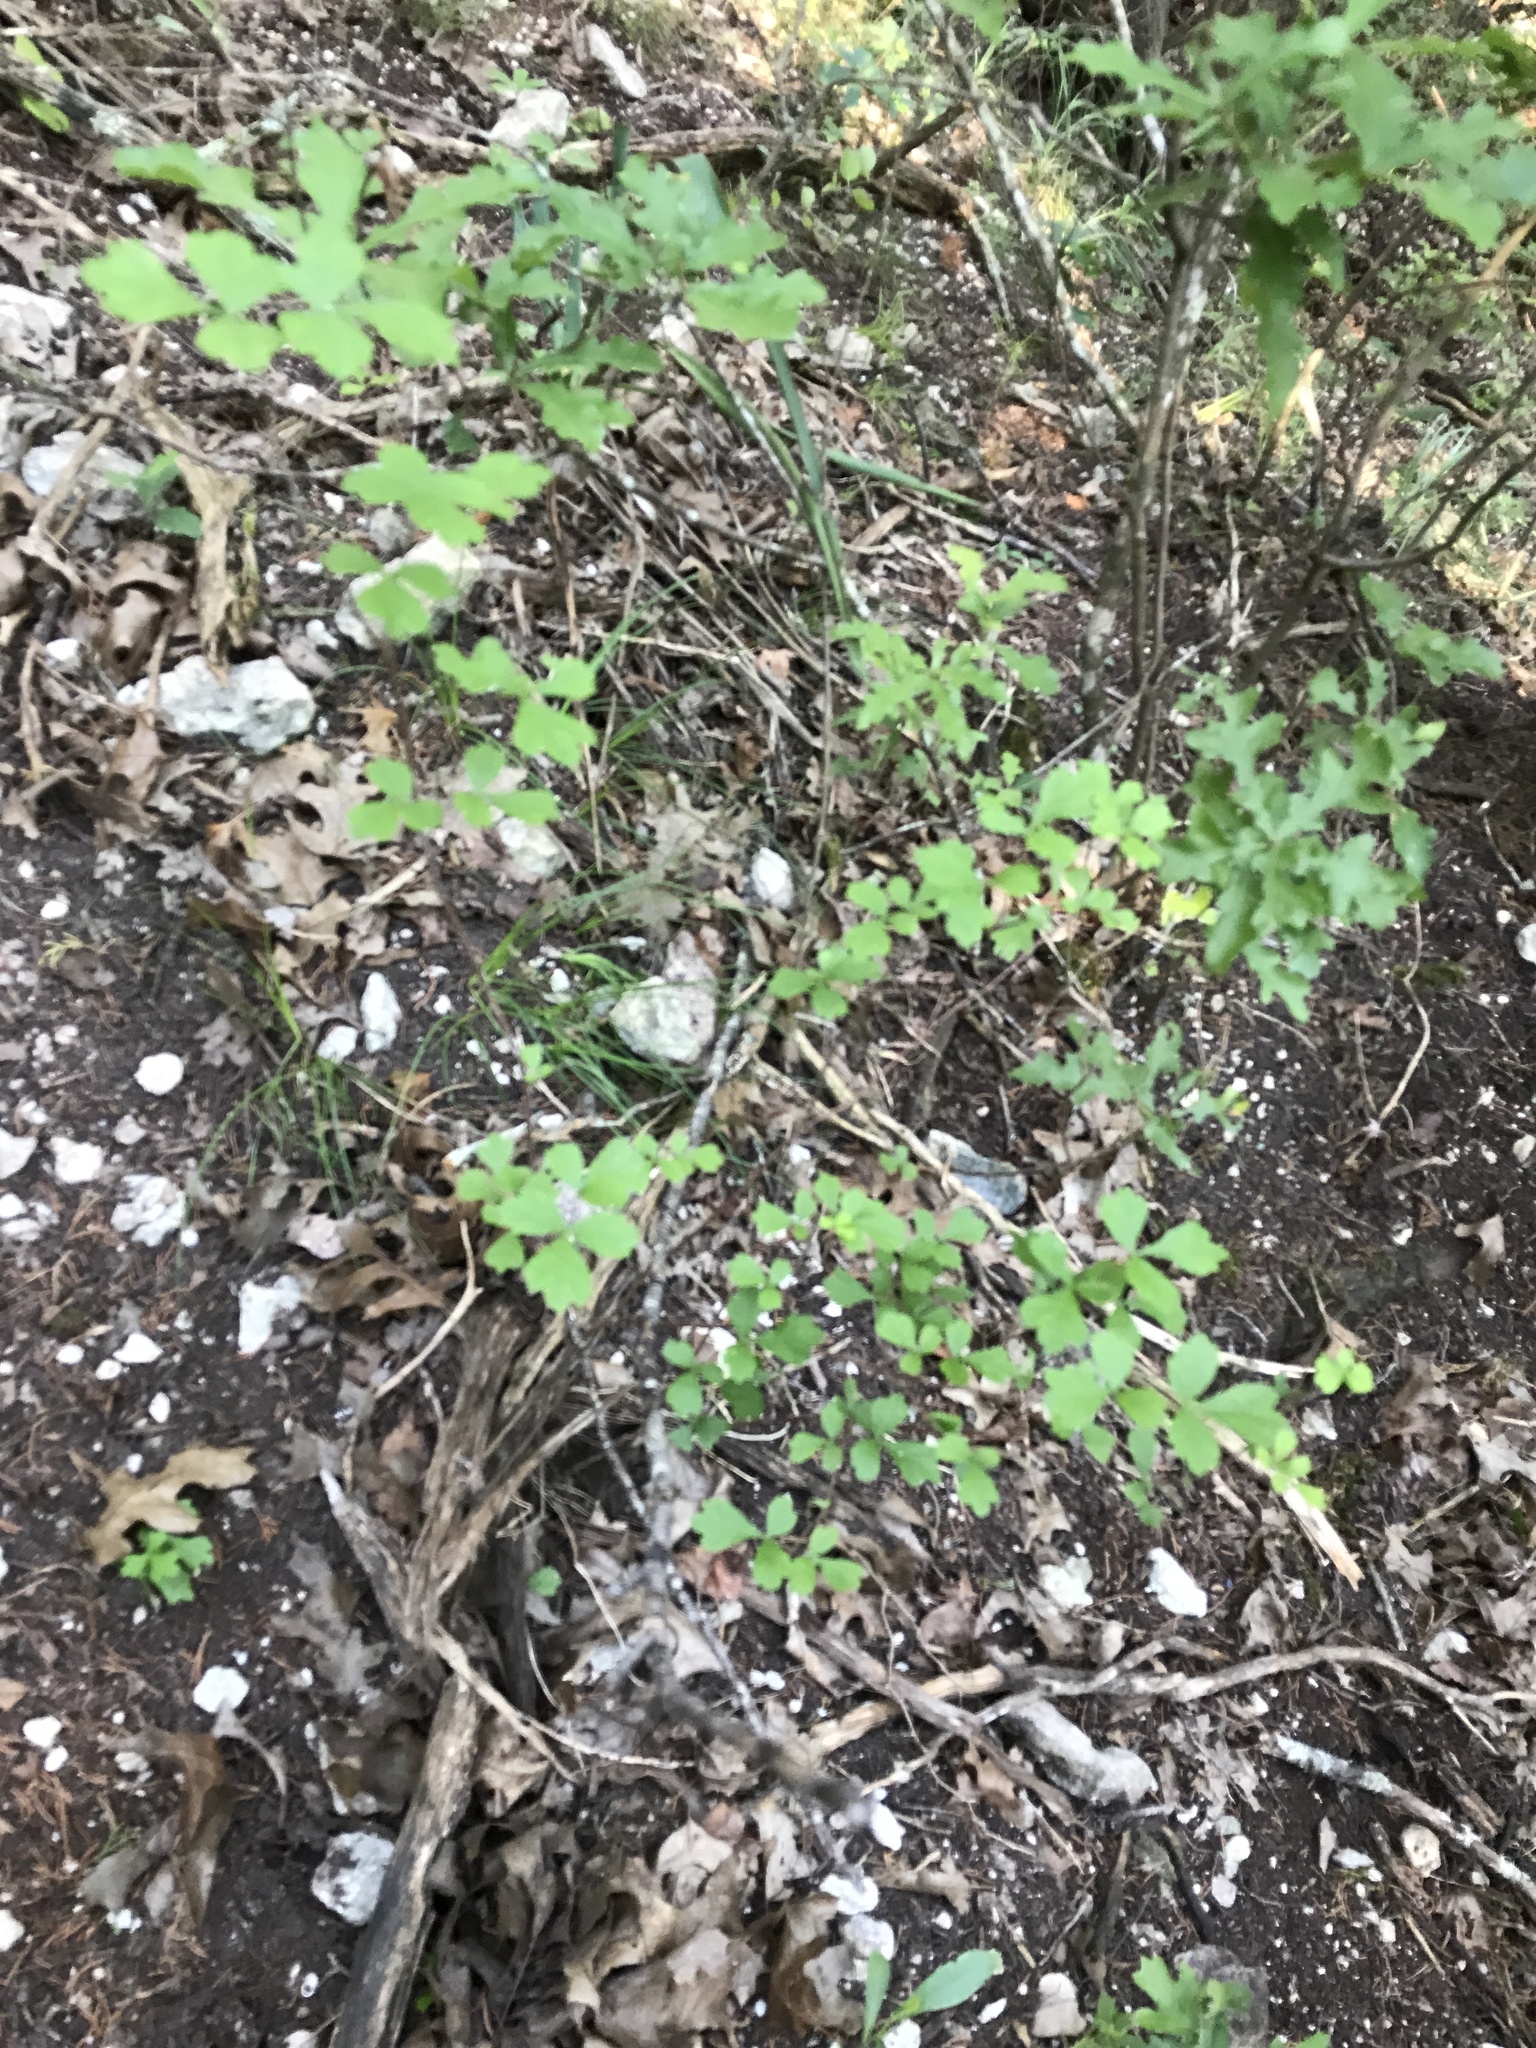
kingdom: Plantae
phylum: Tracheophyta
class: Magnoliopsida
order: Sapindales
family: Anacardiaceae
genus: Rhus
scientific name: Rhus aromatica
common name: Aromatic sumac
